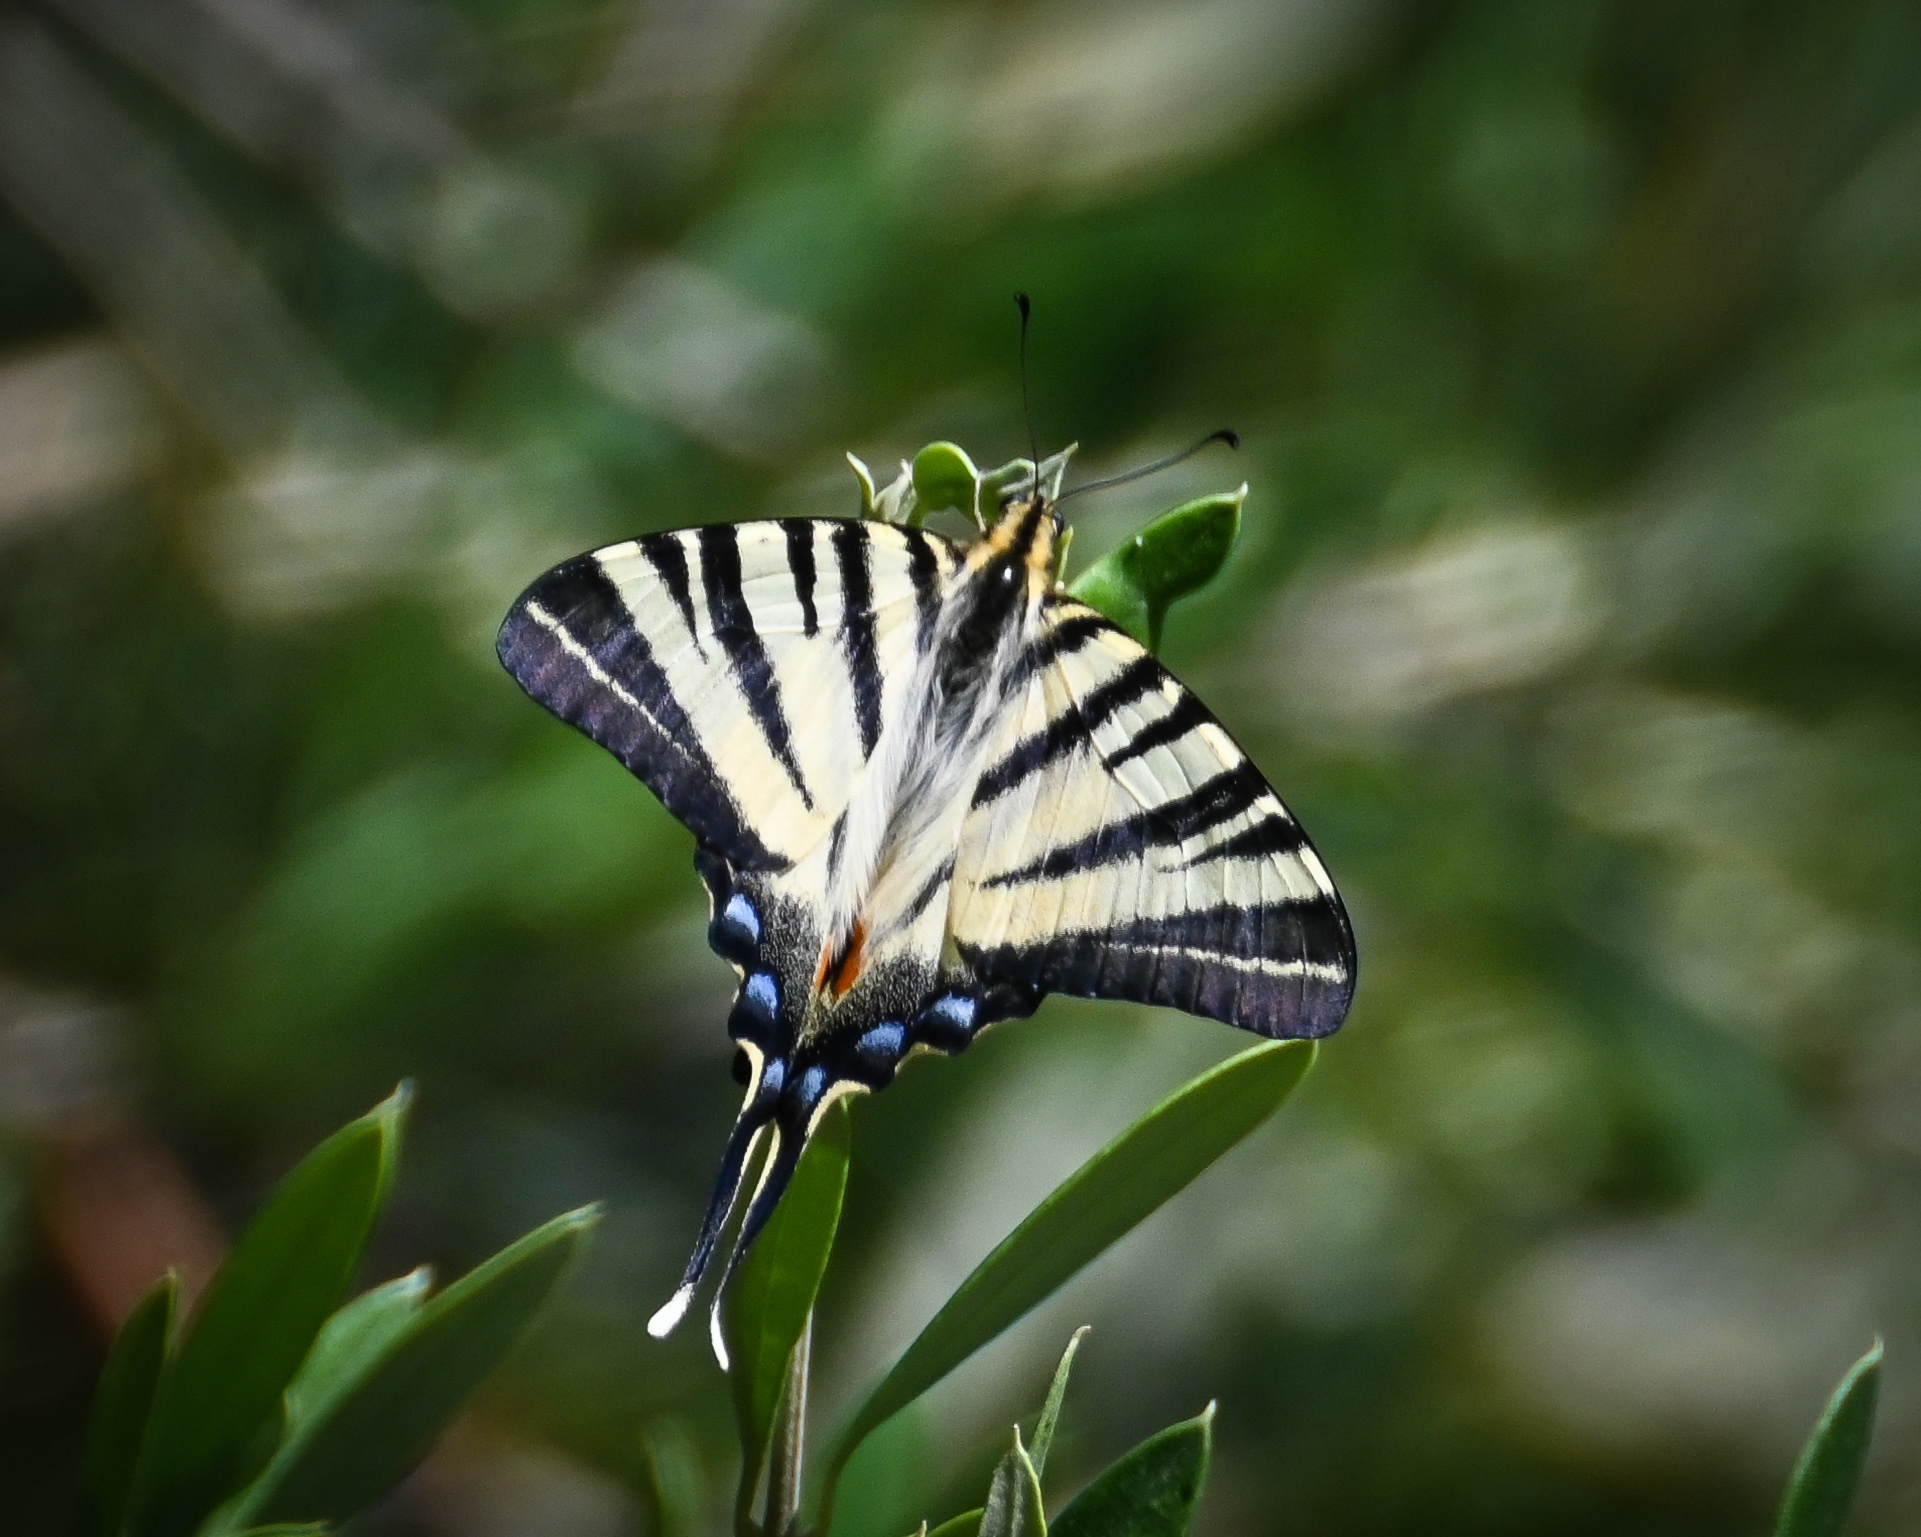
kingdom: Animalia
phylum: Arthropoda
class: Insecta
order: Lepidoptera
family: Papilionidae
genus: Iphiclides
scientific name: Iphiclides podalirius
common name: Scarce swallowtail
